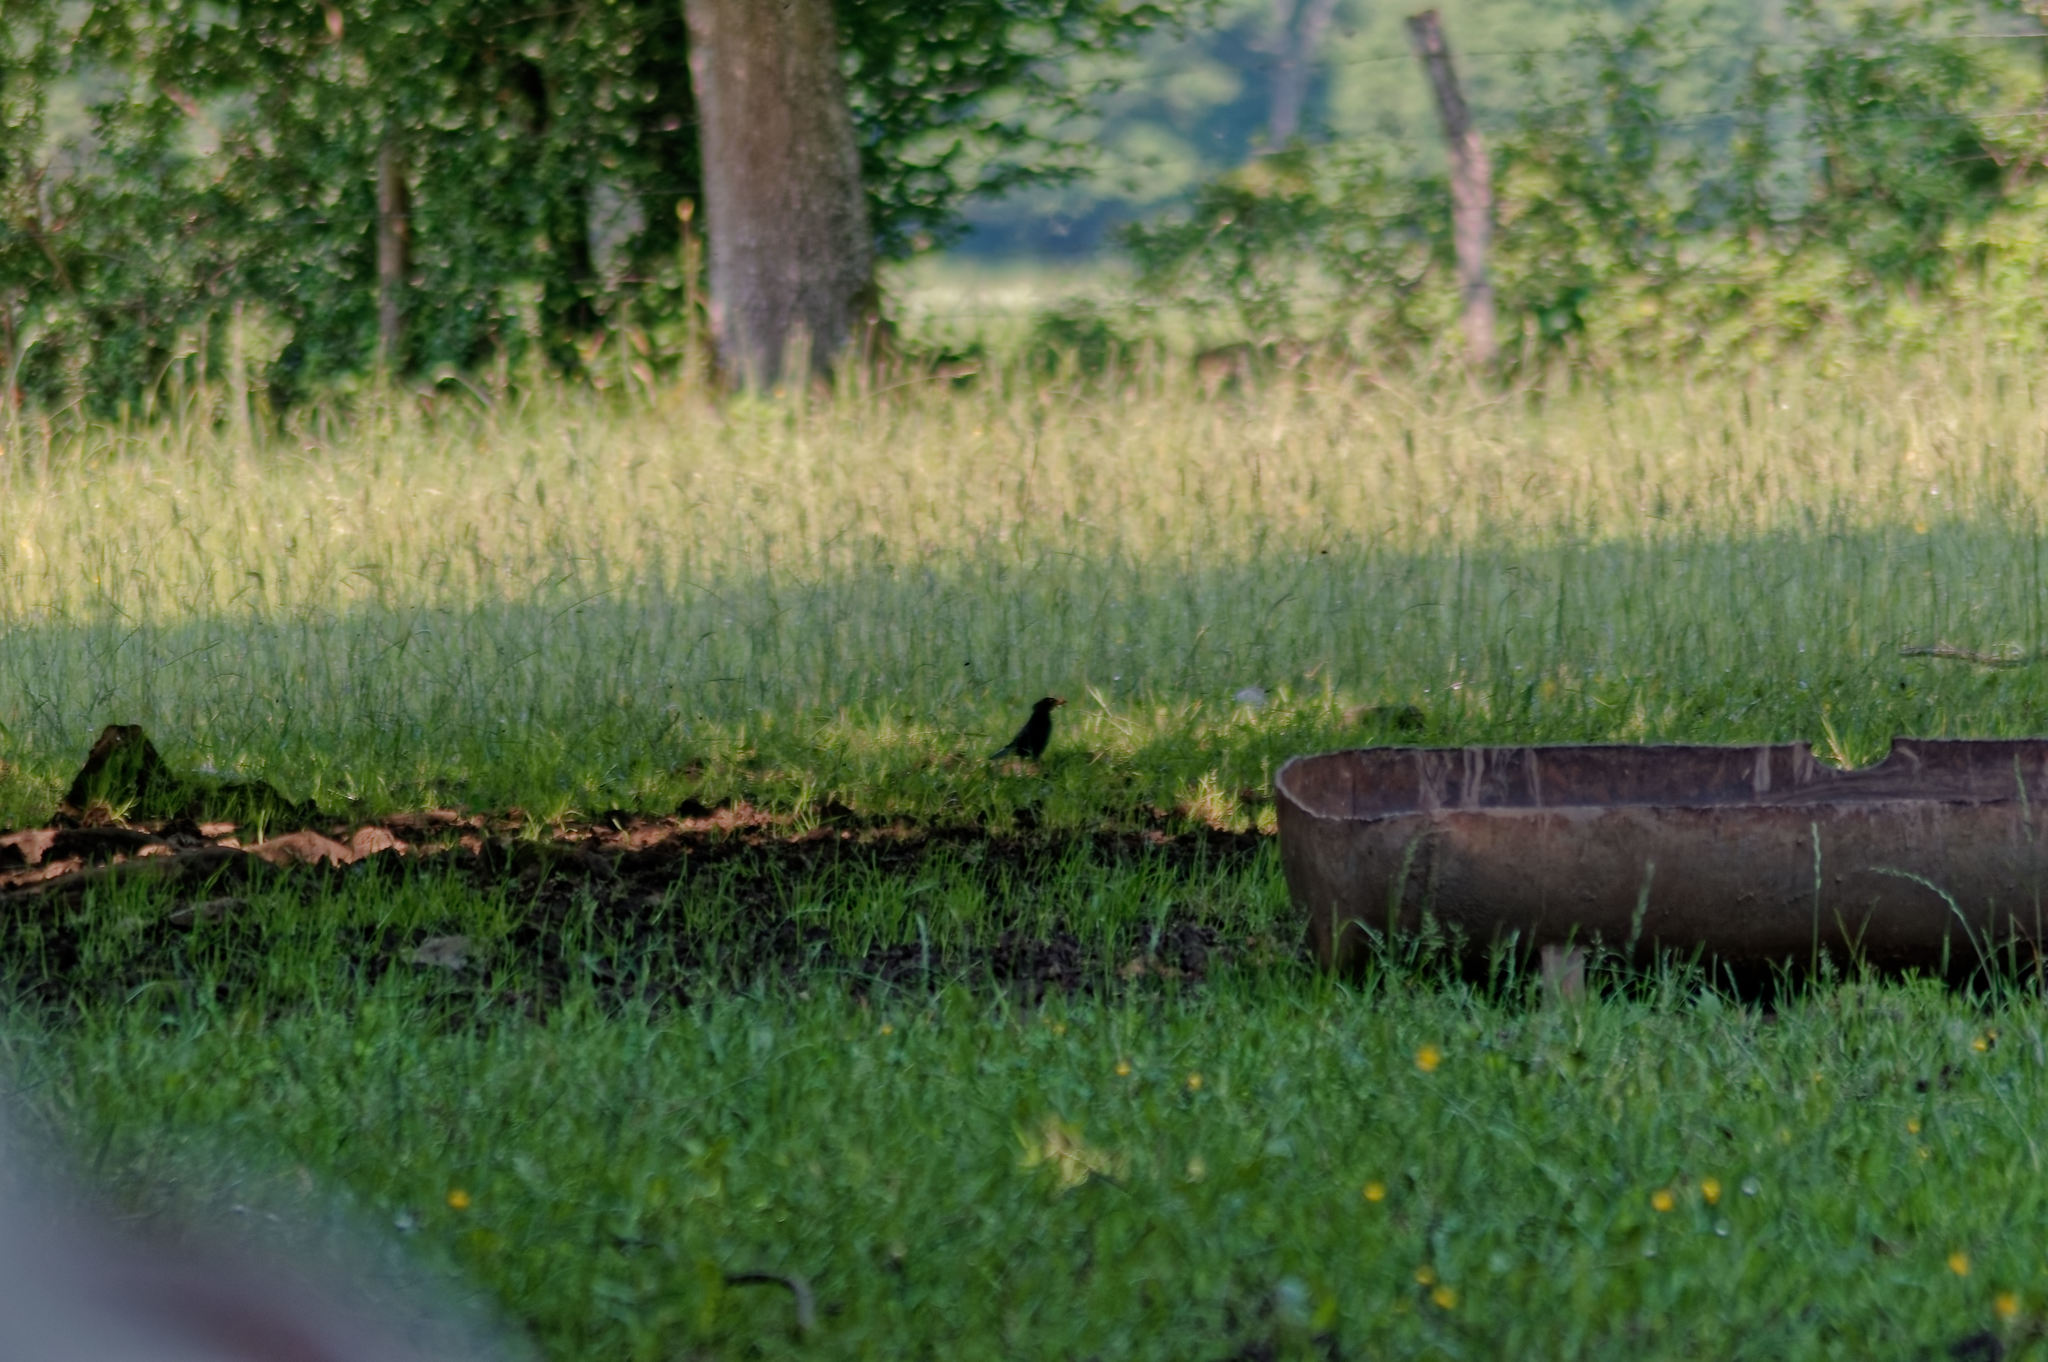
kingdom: Animalia
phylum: Chordata
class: Aves
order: Passeriformes
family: Turdidae
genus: Turdus
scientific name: Turdus merula
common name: Common blackbird
